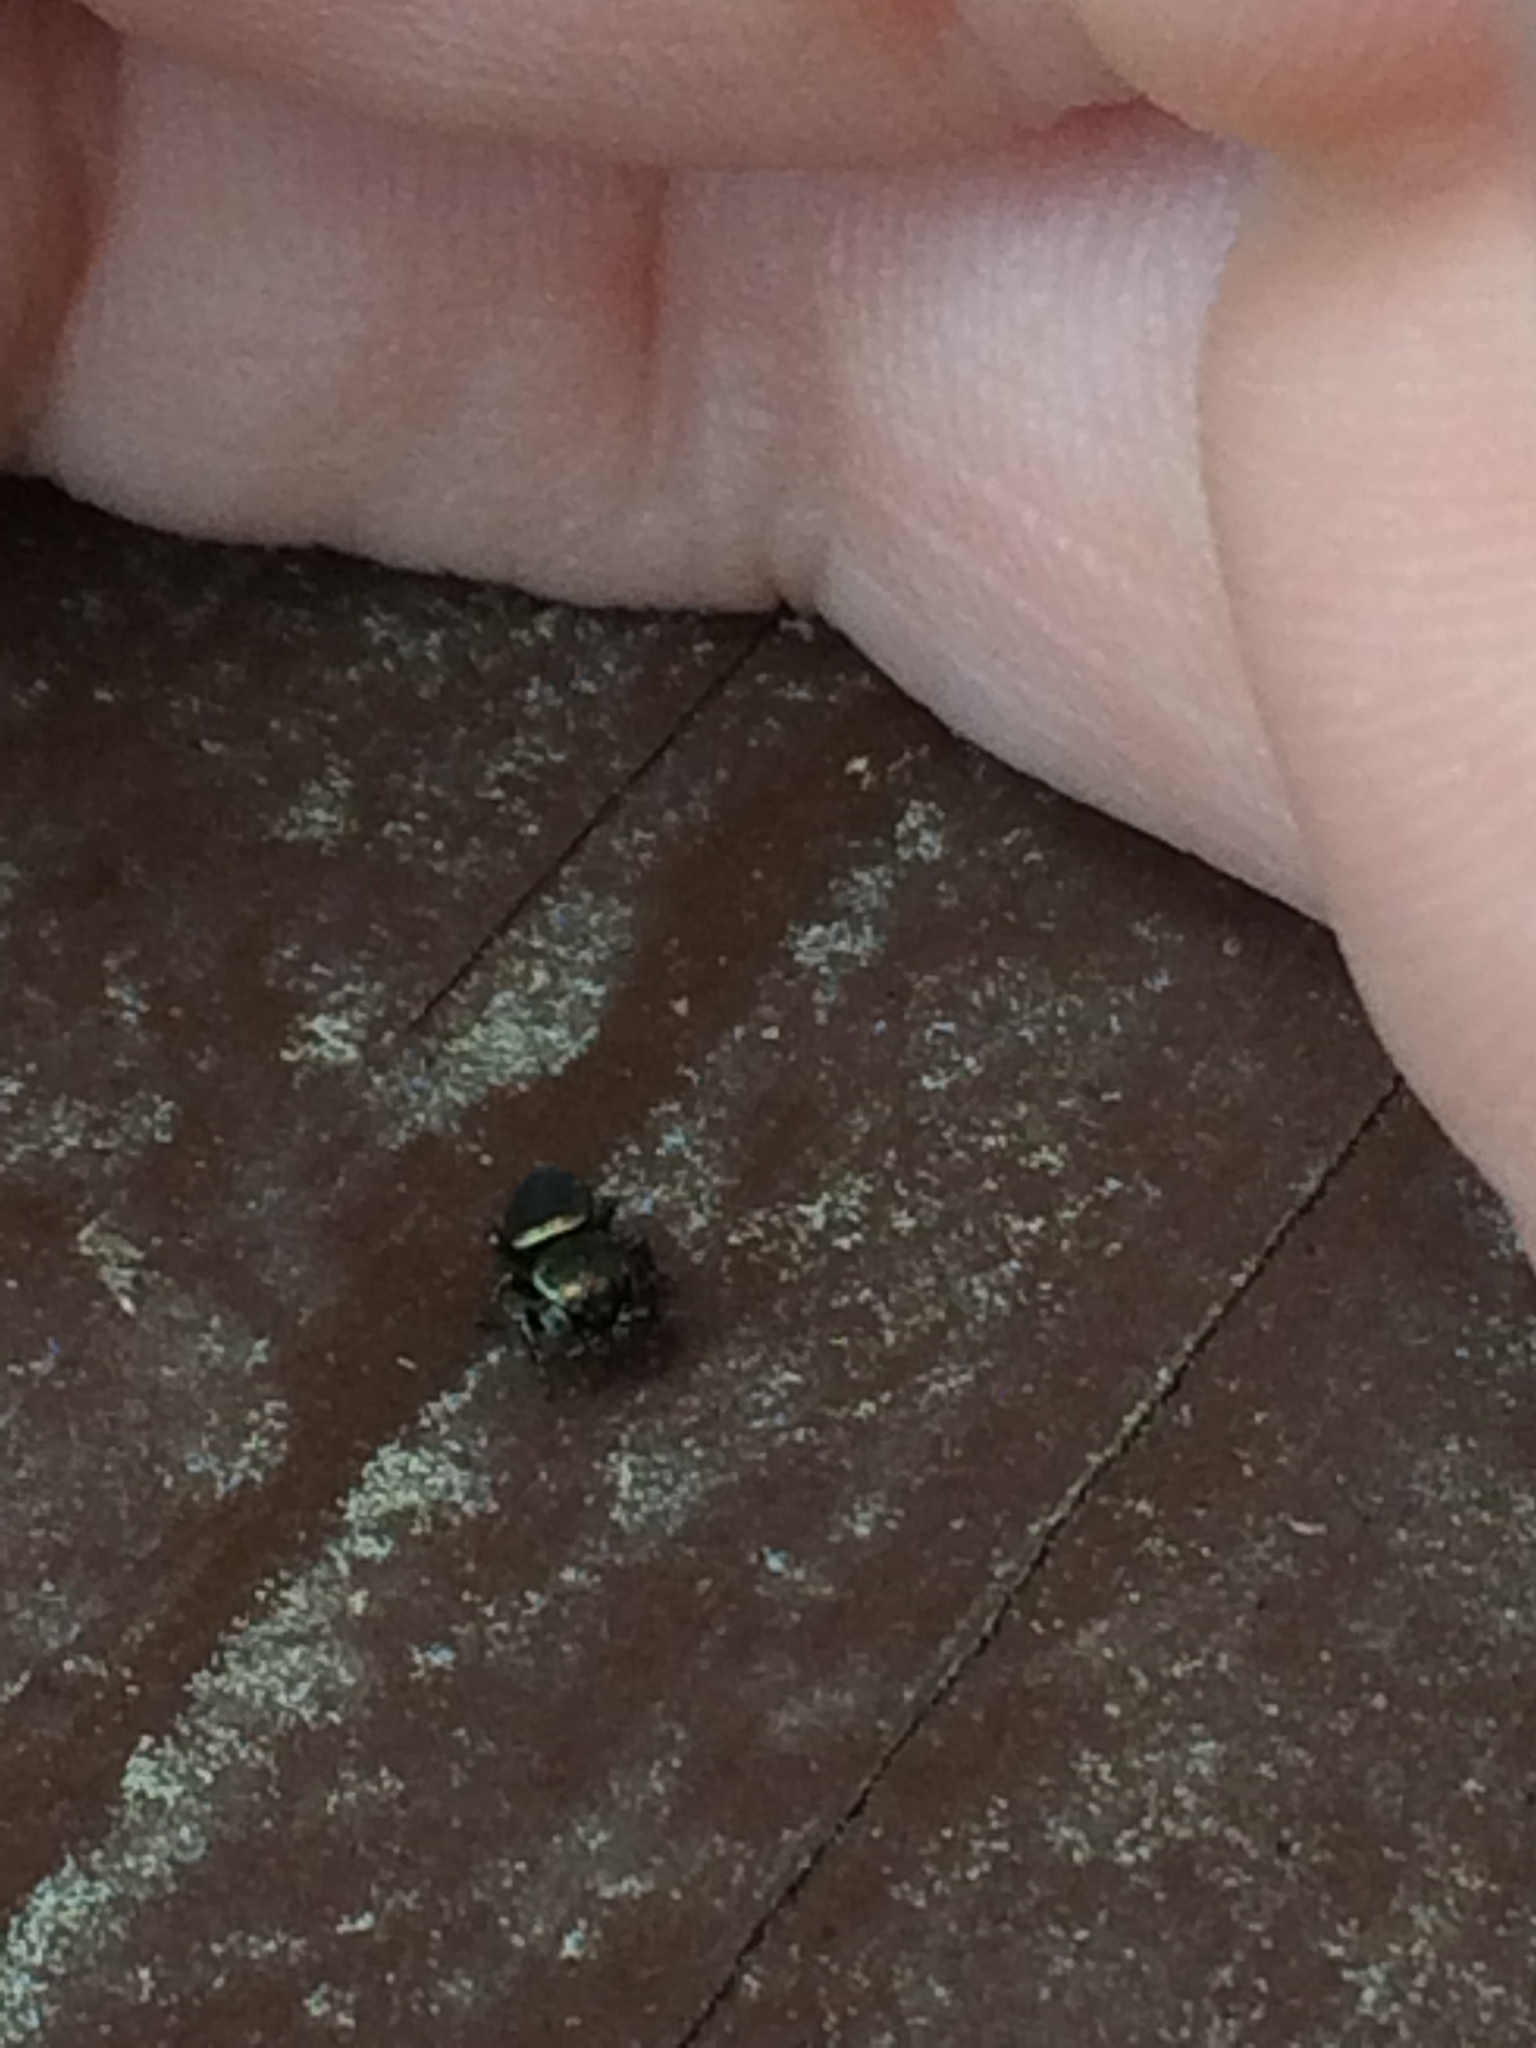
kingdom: Animalia
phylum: Arthropoda
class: Arachnida
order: Araneae
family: Salticidae
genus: Sassacus
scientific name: Sassacus papenhoei
